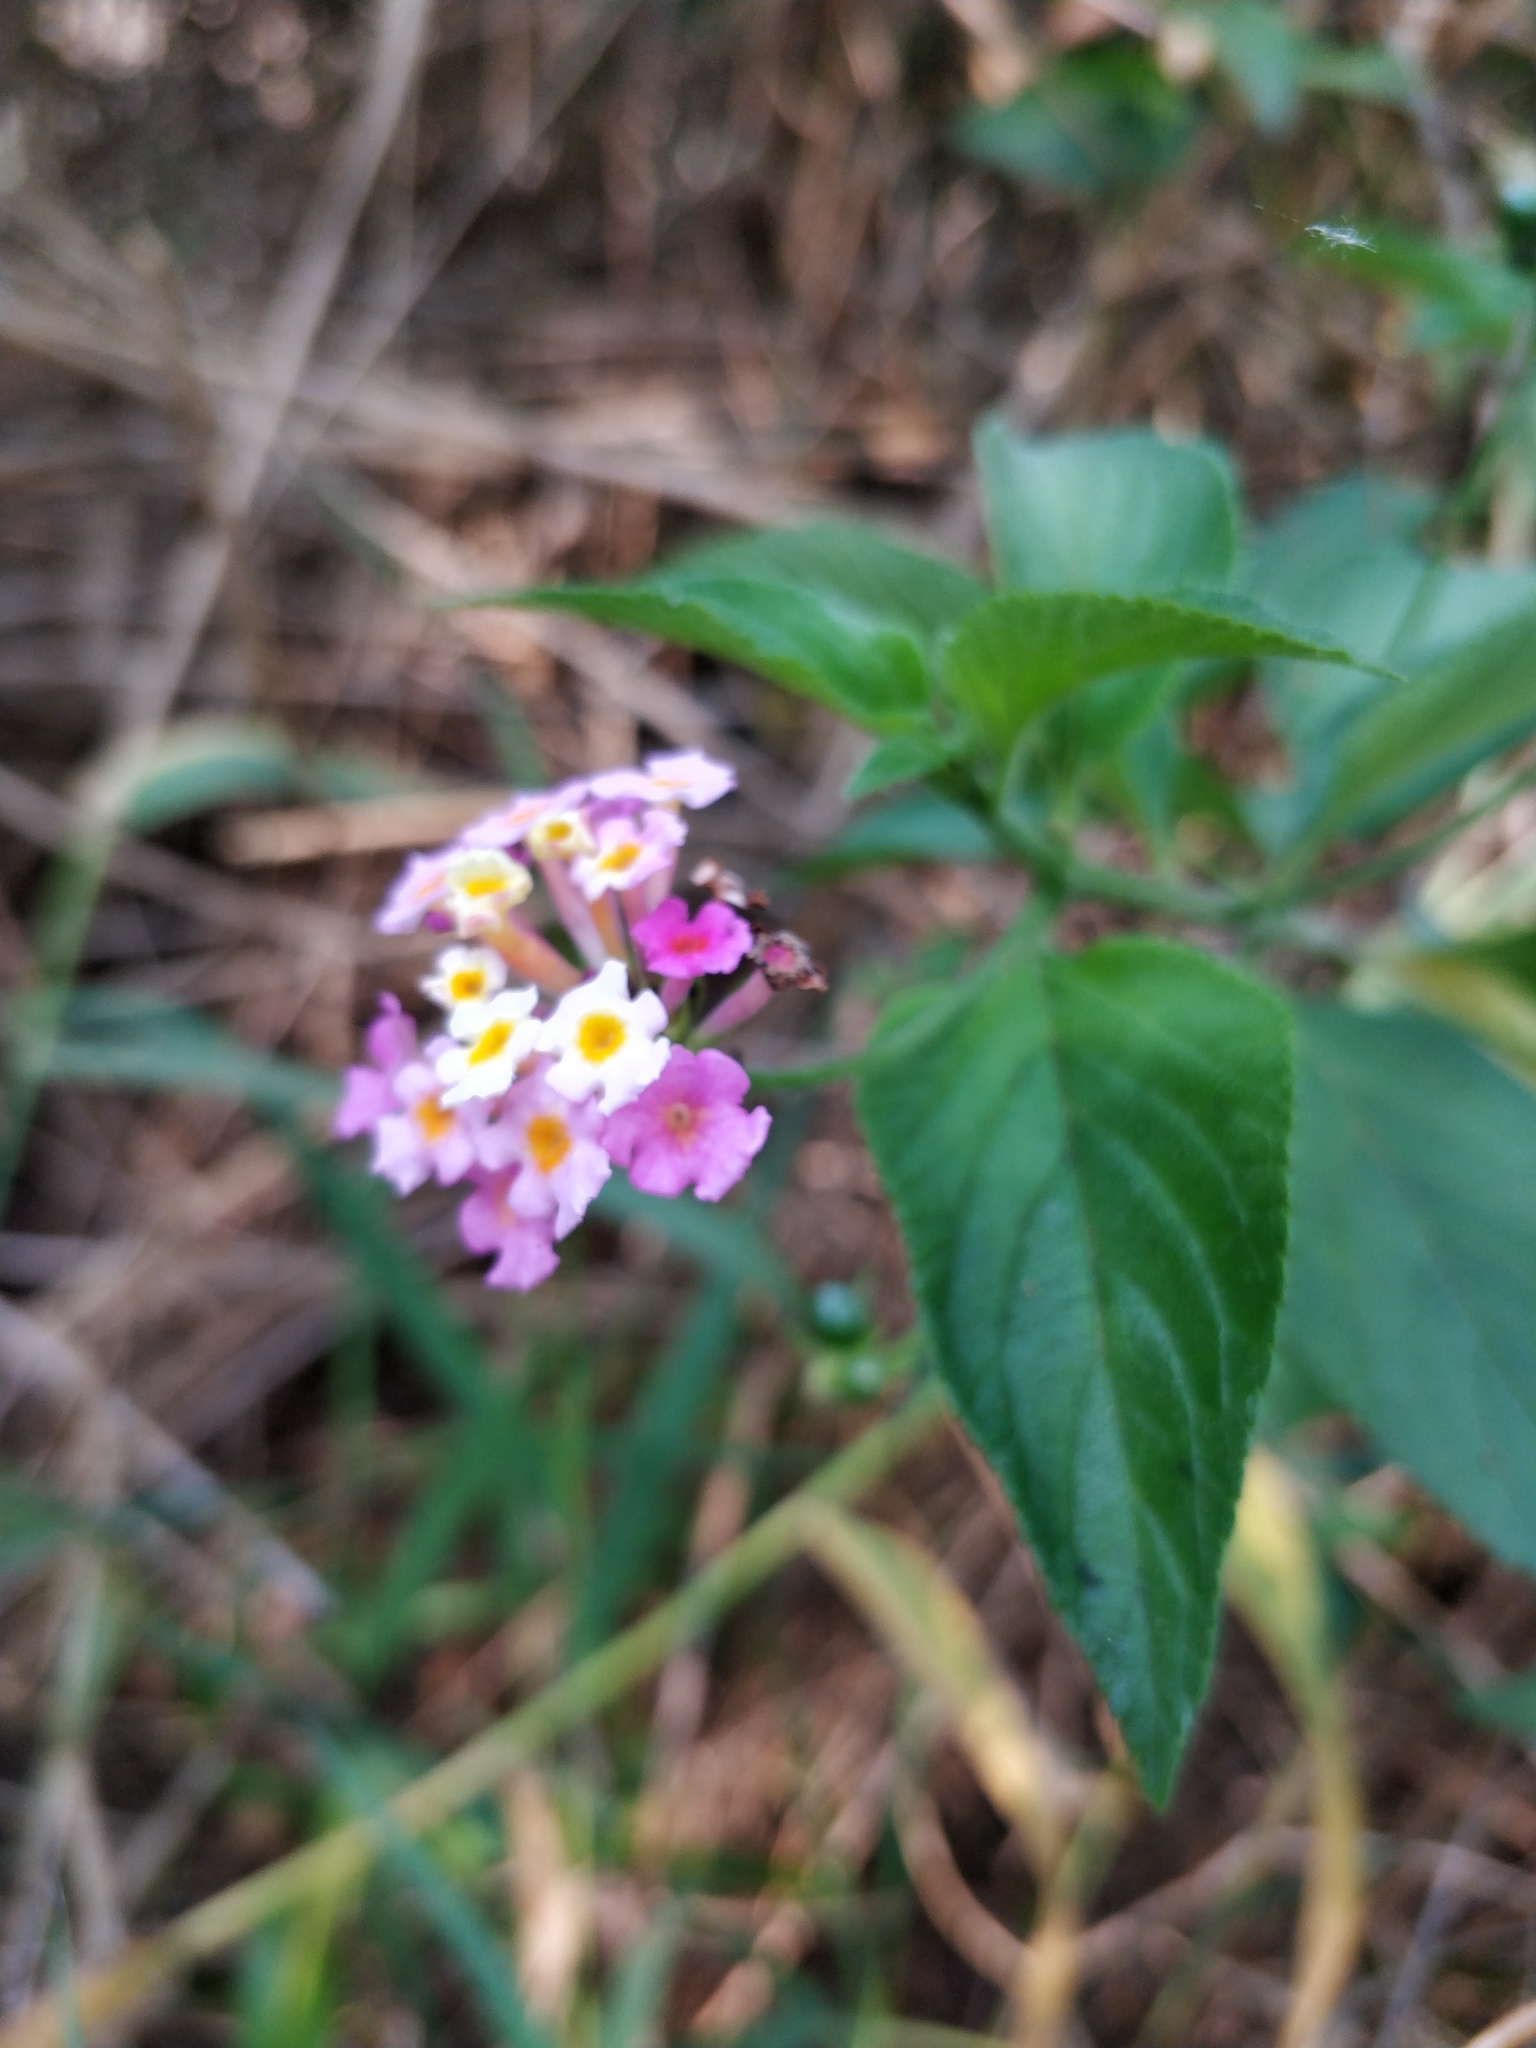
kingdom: Plantae
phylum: Tracheophyta
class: Magnoliopsida
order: Lamiales
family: Verbenaceae
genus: Lantana
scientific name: Lantana camara
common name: Lantana
